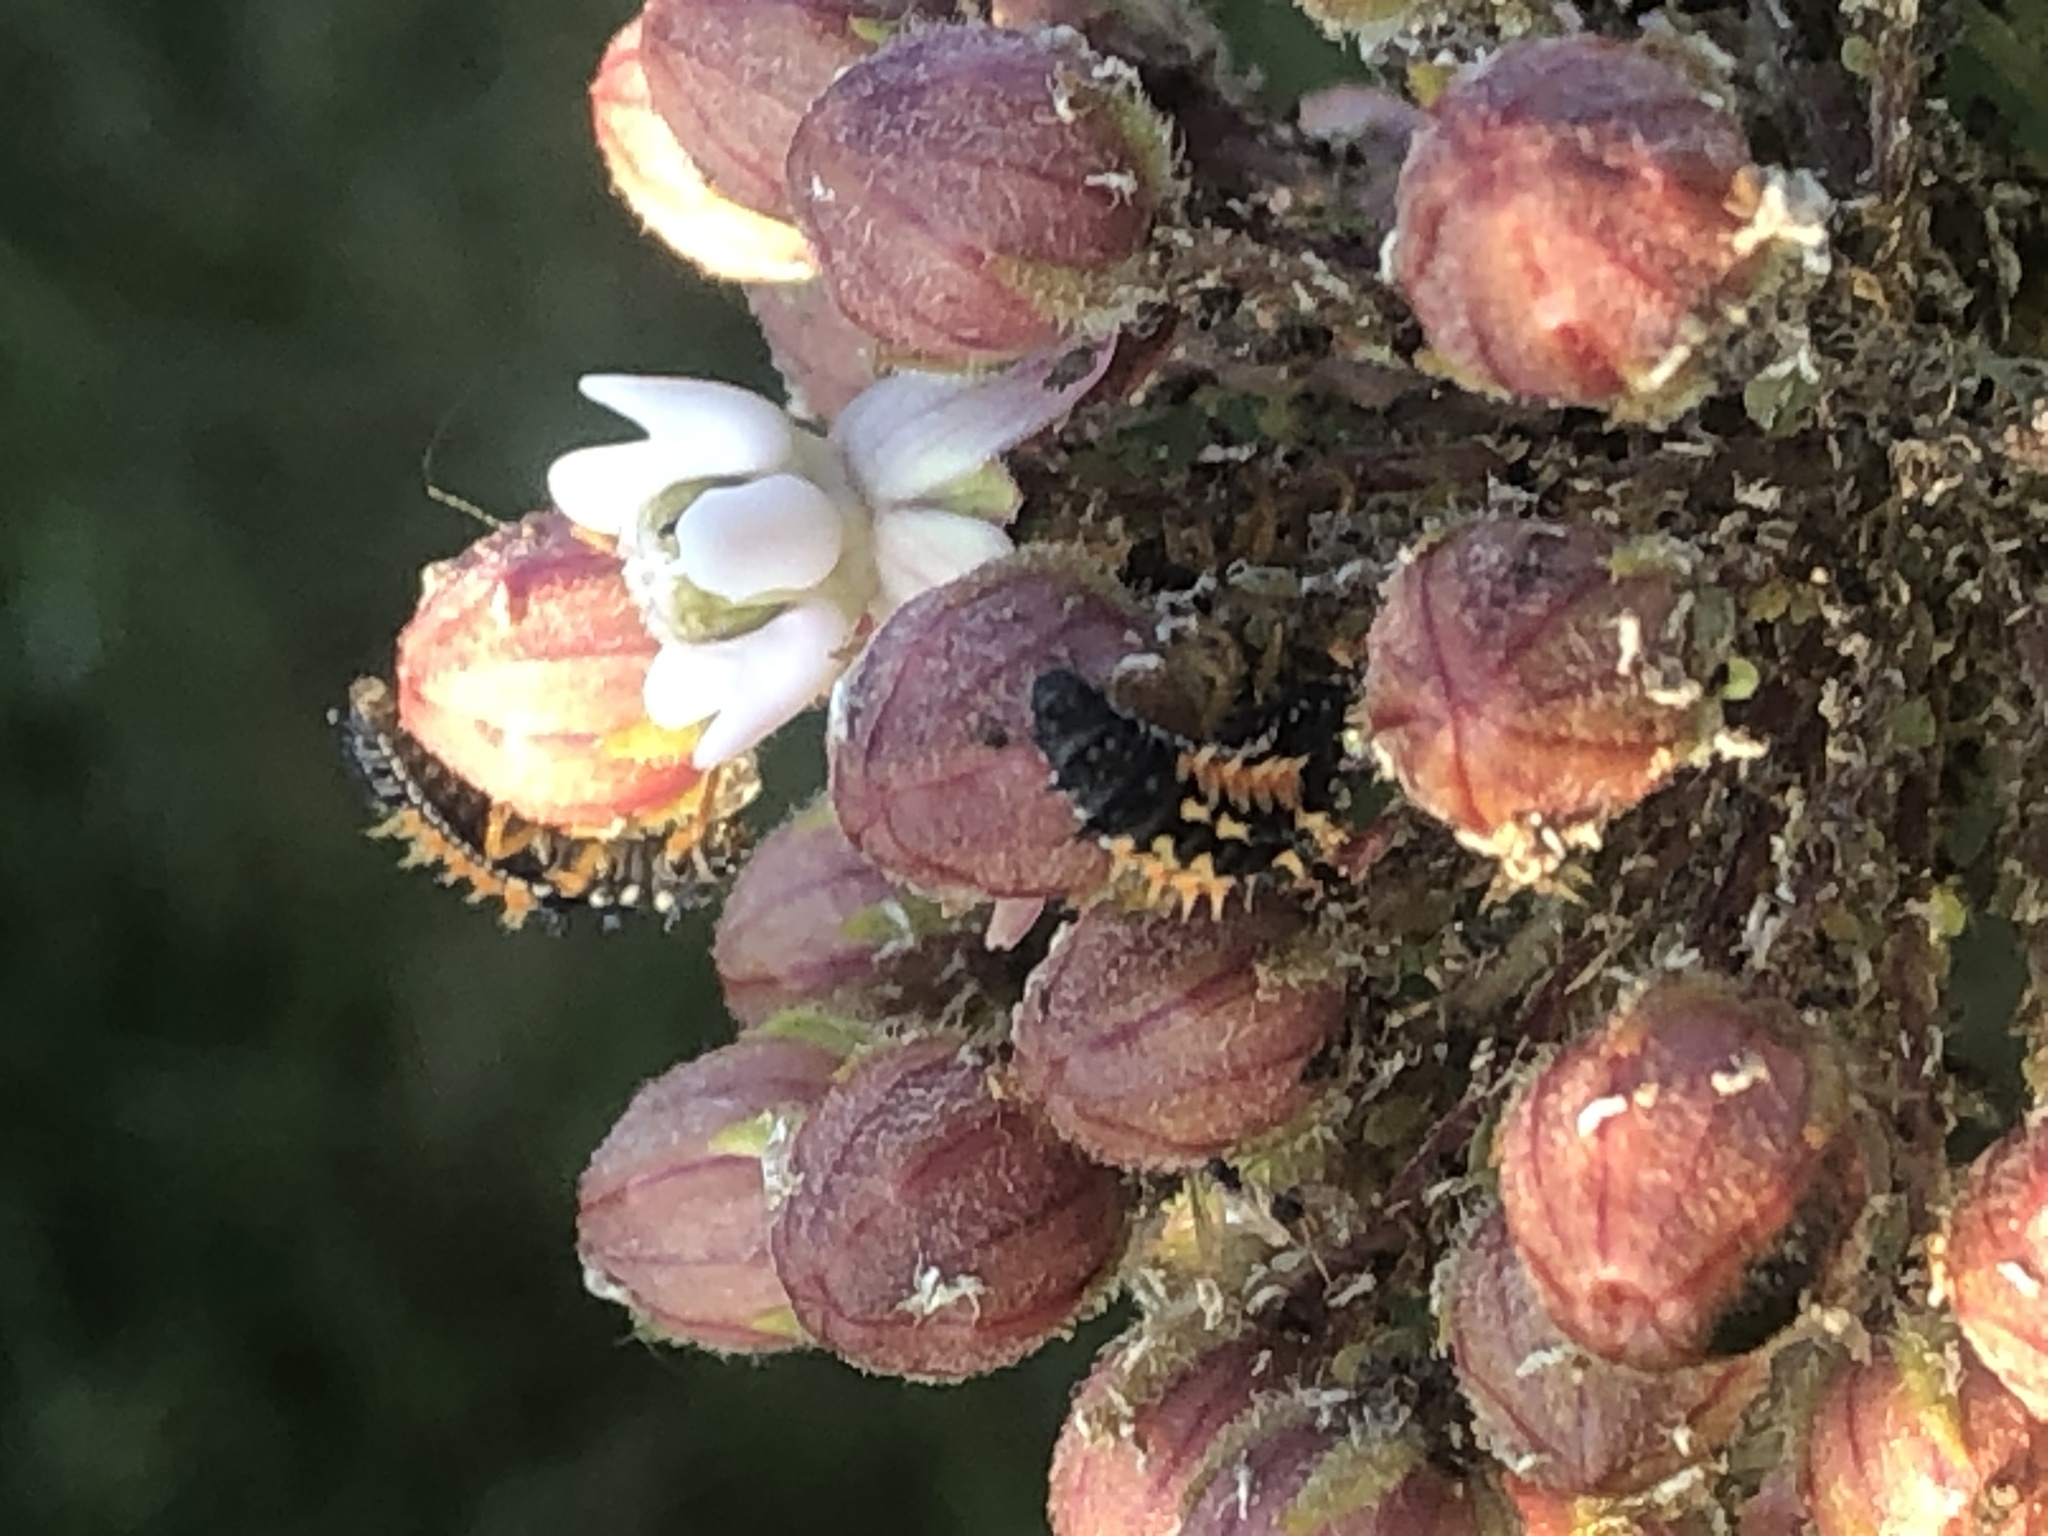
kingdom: Animalia
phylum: Arthropoda
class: Insecta
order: Coleoptera
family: Coccinellidae
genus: Harmonia
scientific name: Harmonia axyridis
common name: Harlequin ladybird
